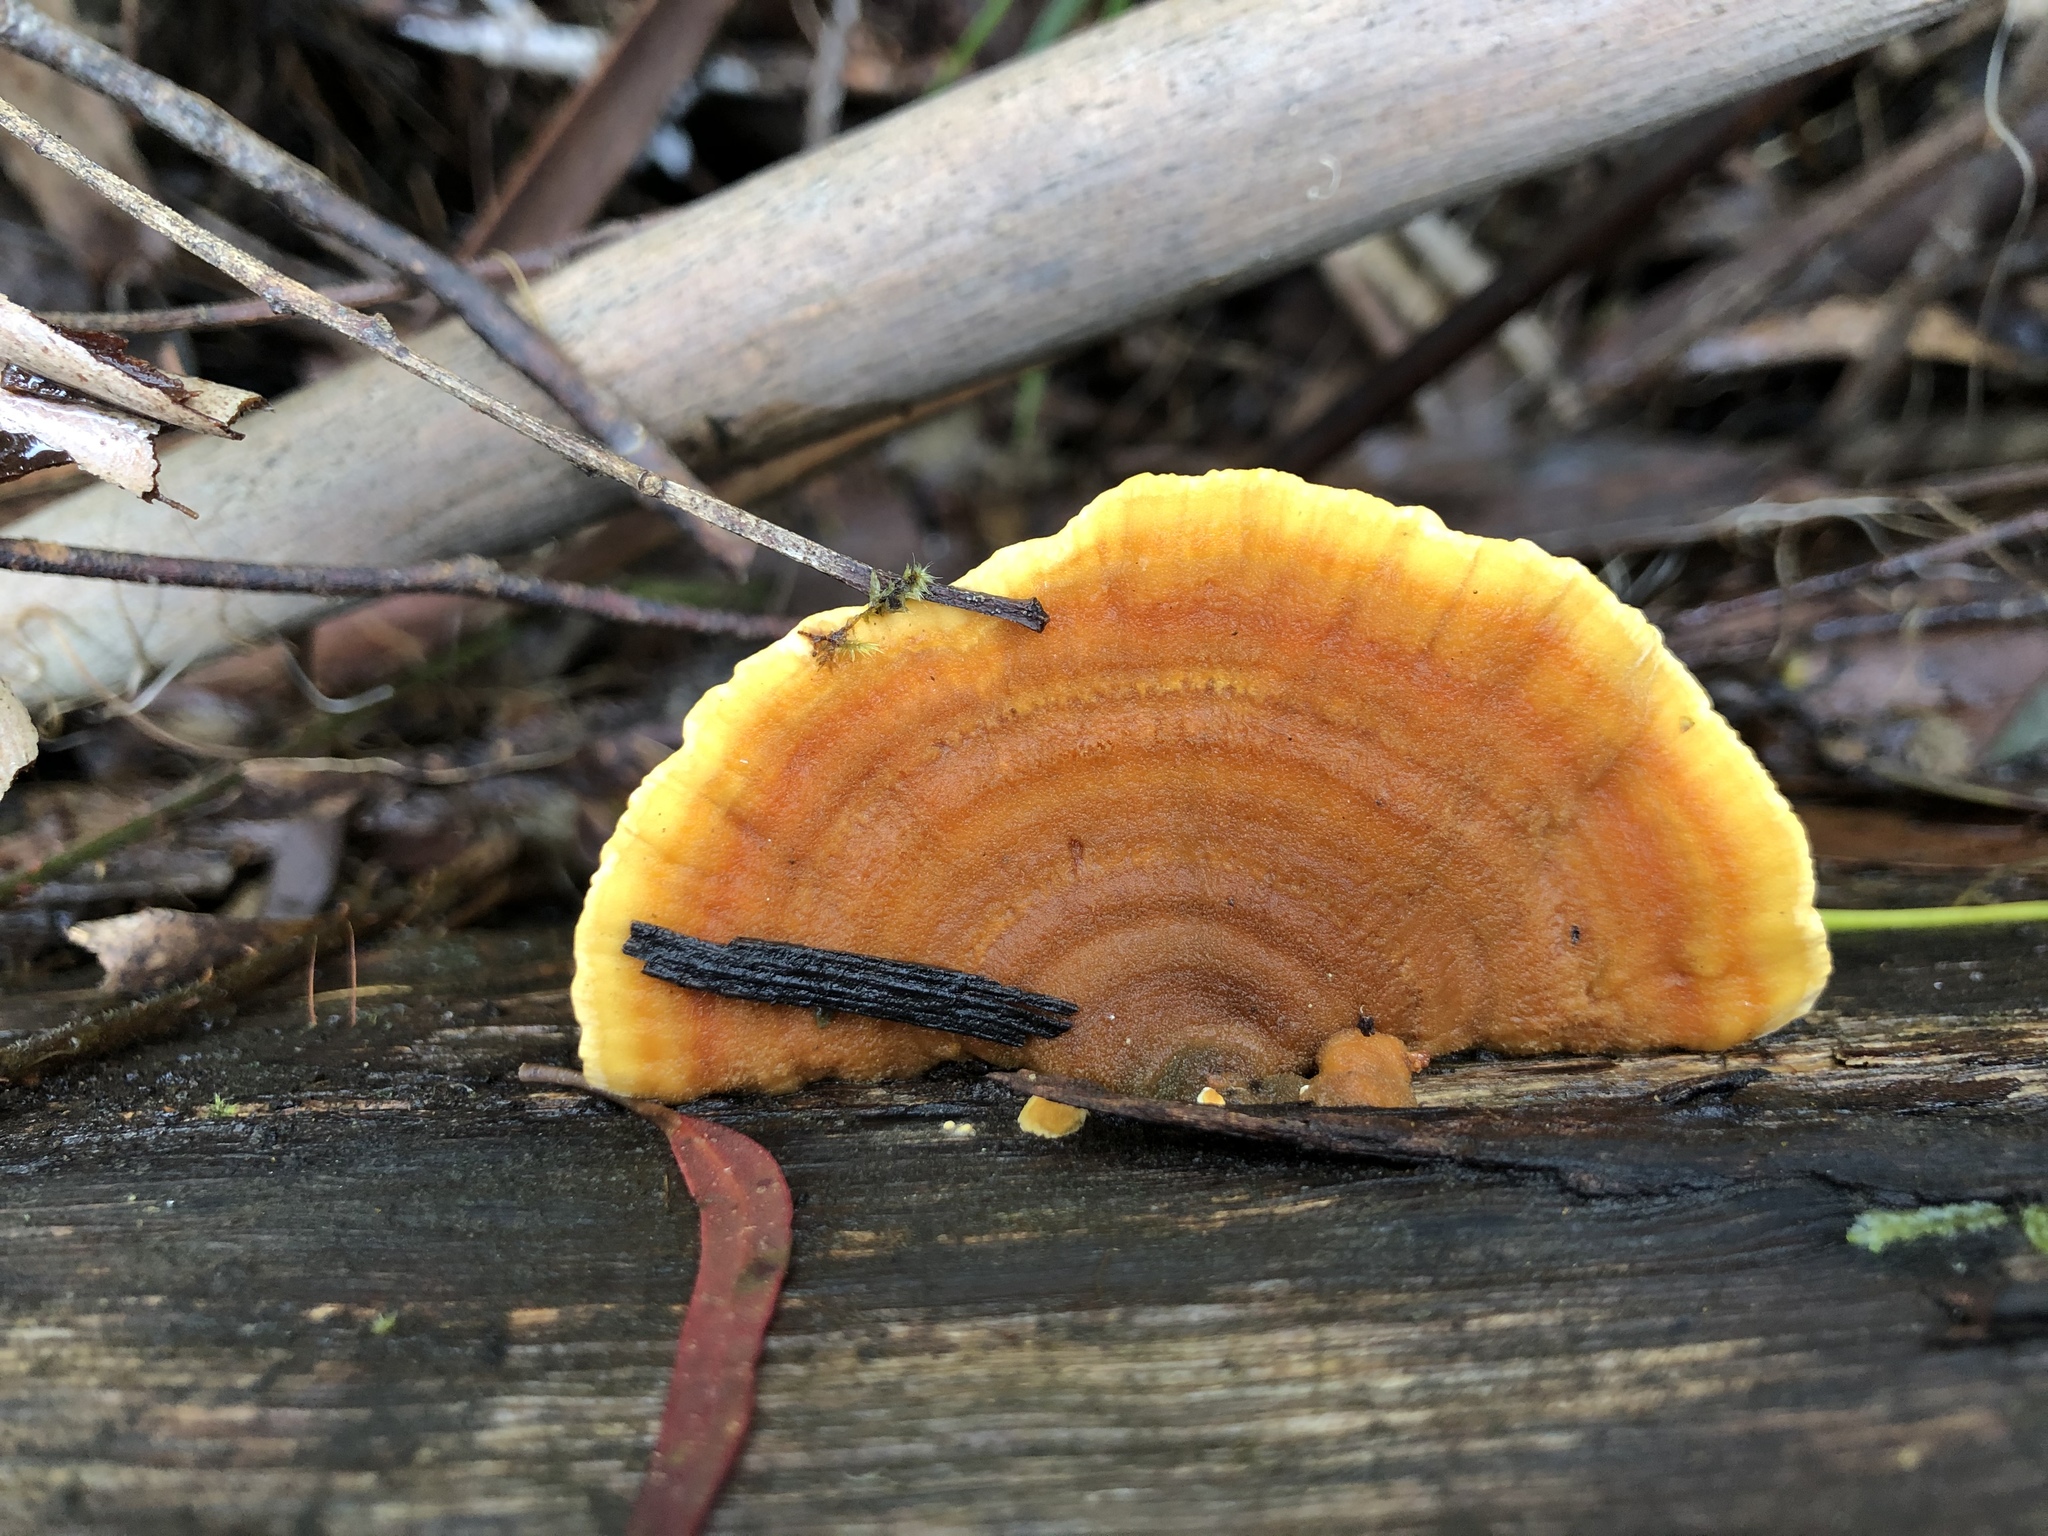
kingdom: Fungi
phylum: Basidiomycota
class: Agaricomycetes
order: Russulales
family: Stereaceae
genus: Stereum
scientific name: Stereum versicolor
